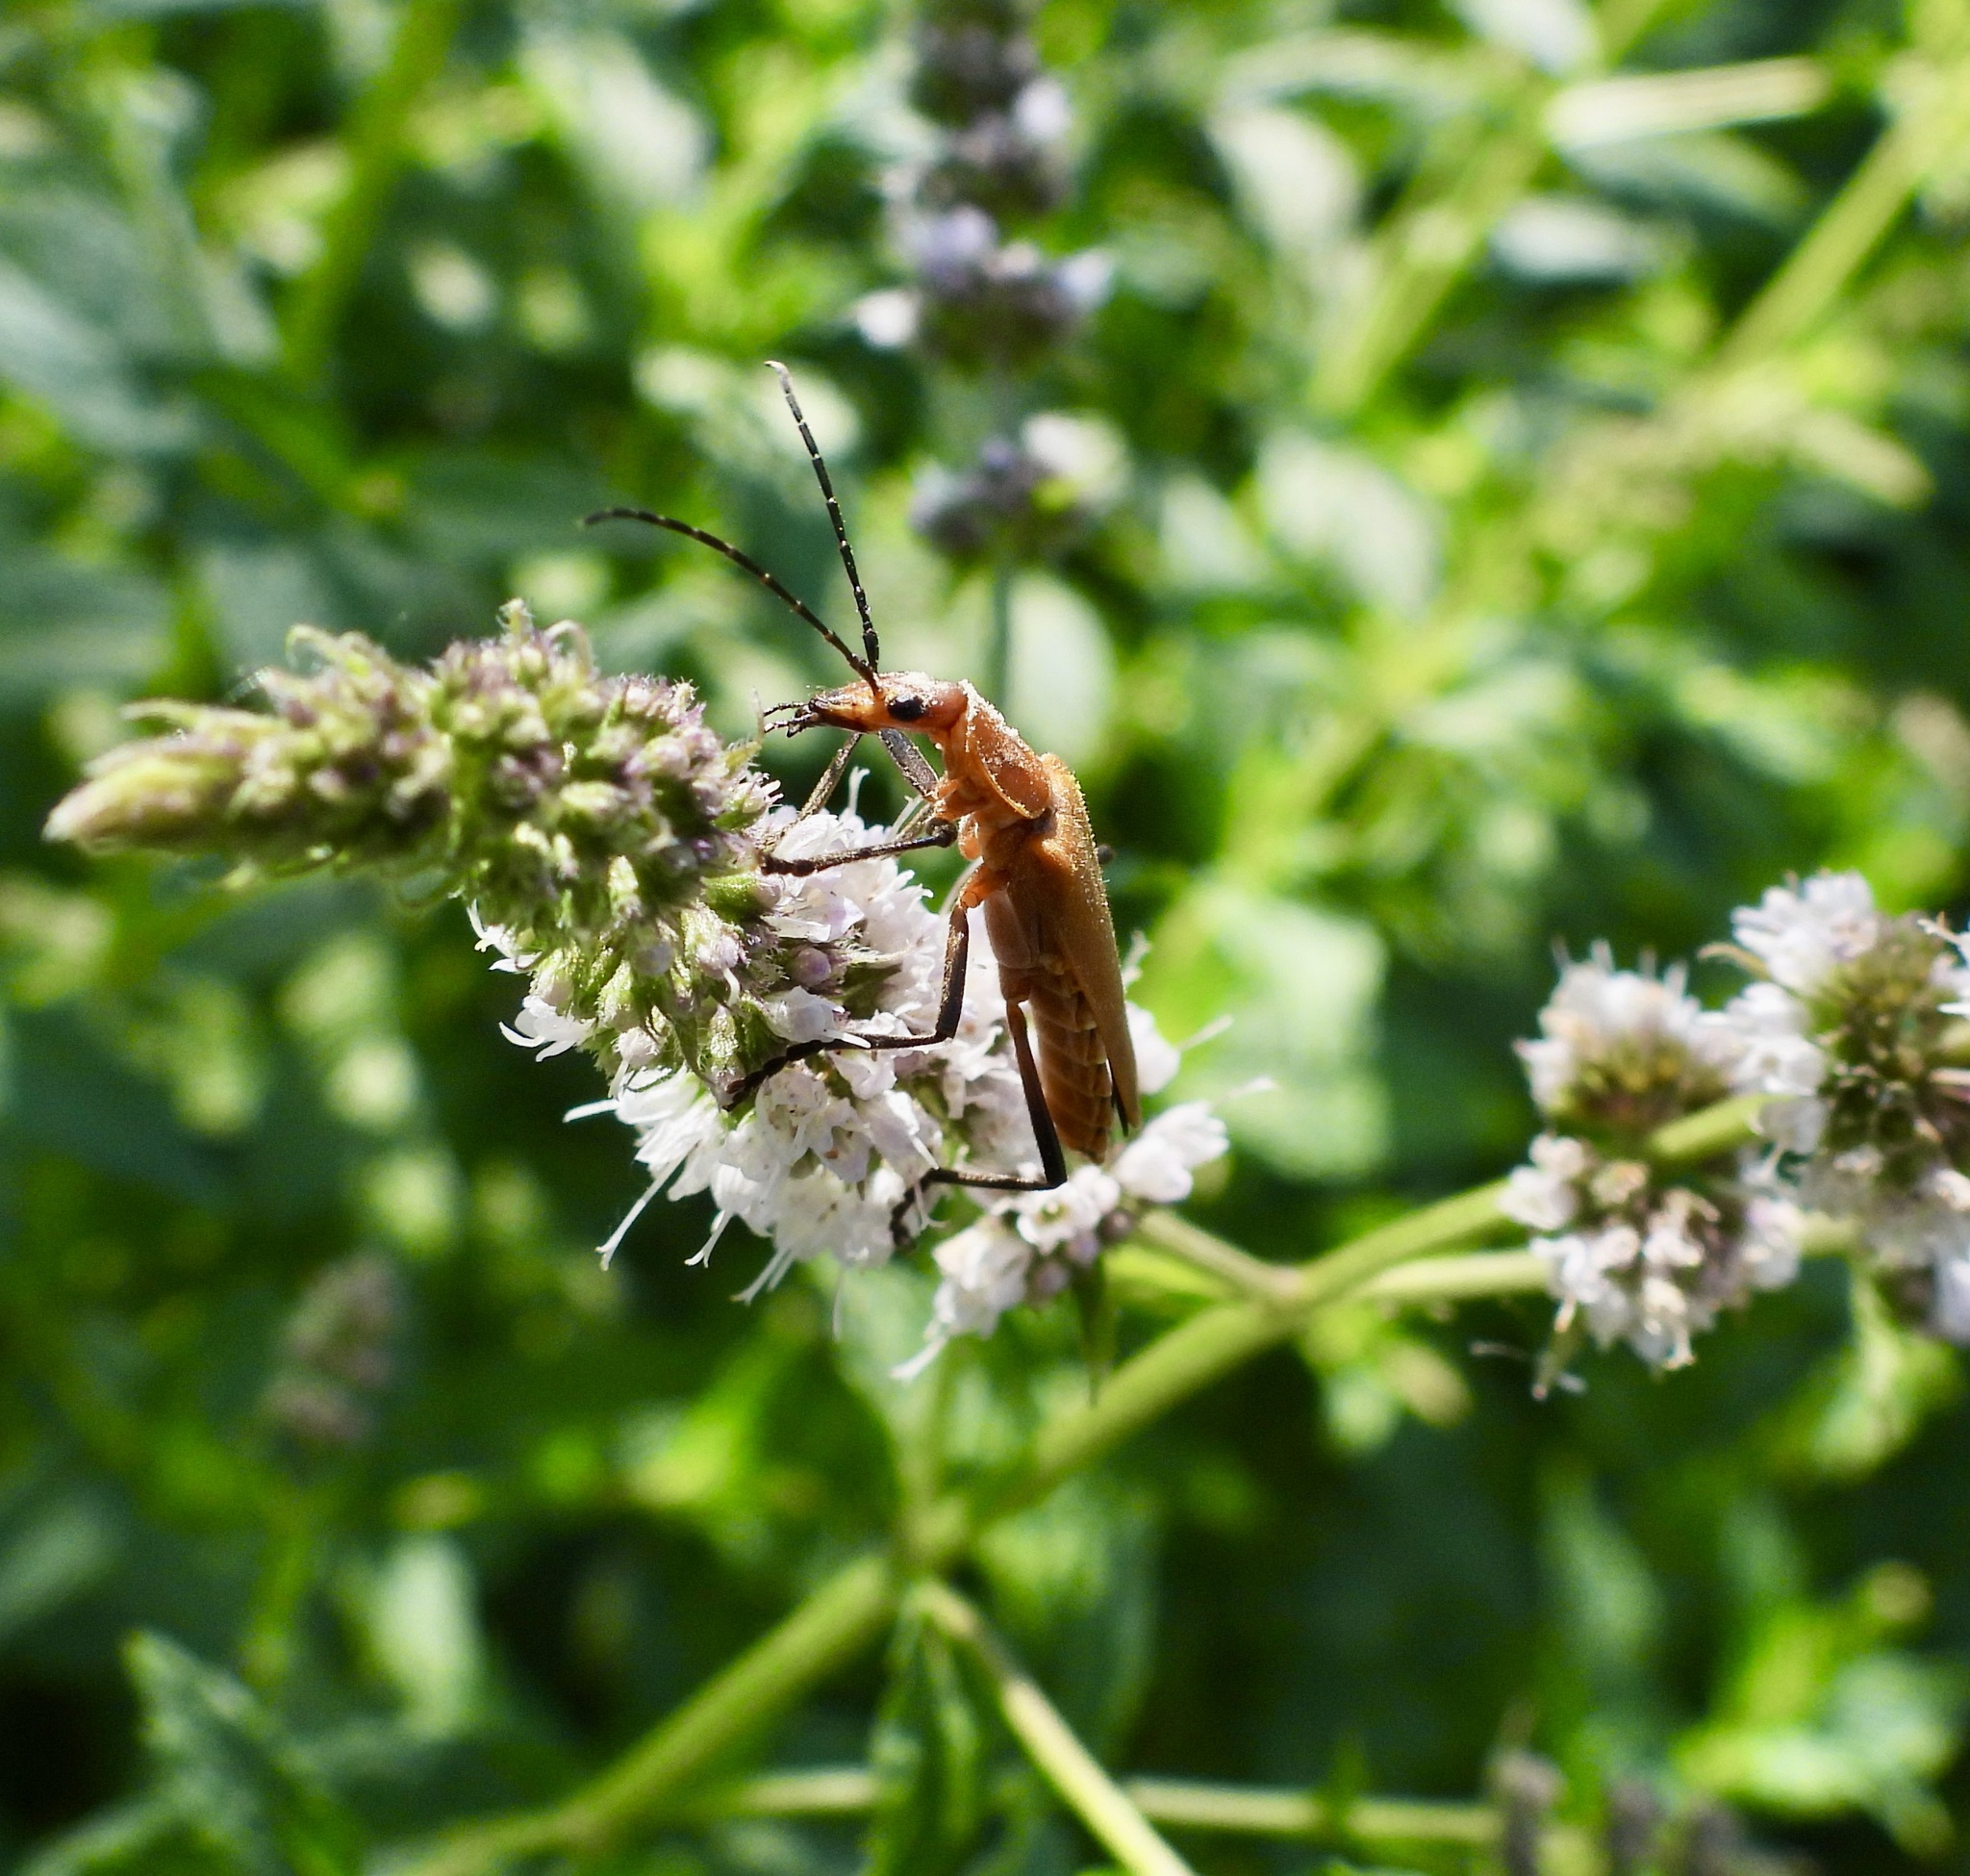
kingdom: Animalia
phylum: Arthropoda
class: Insecta
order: Coleoptera
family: Cantharidae
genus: Chauliognathus
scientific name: Chauliognathus discus
